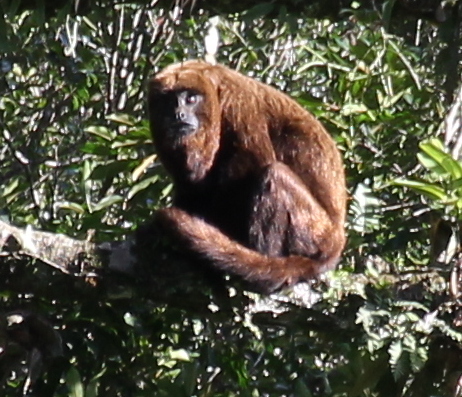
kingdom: Animalia
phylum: Chordata
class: Mammalia
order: Primates
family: Atelidae
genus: Alouatta
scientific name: Alouatta guariba
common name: Brown howler monkey
